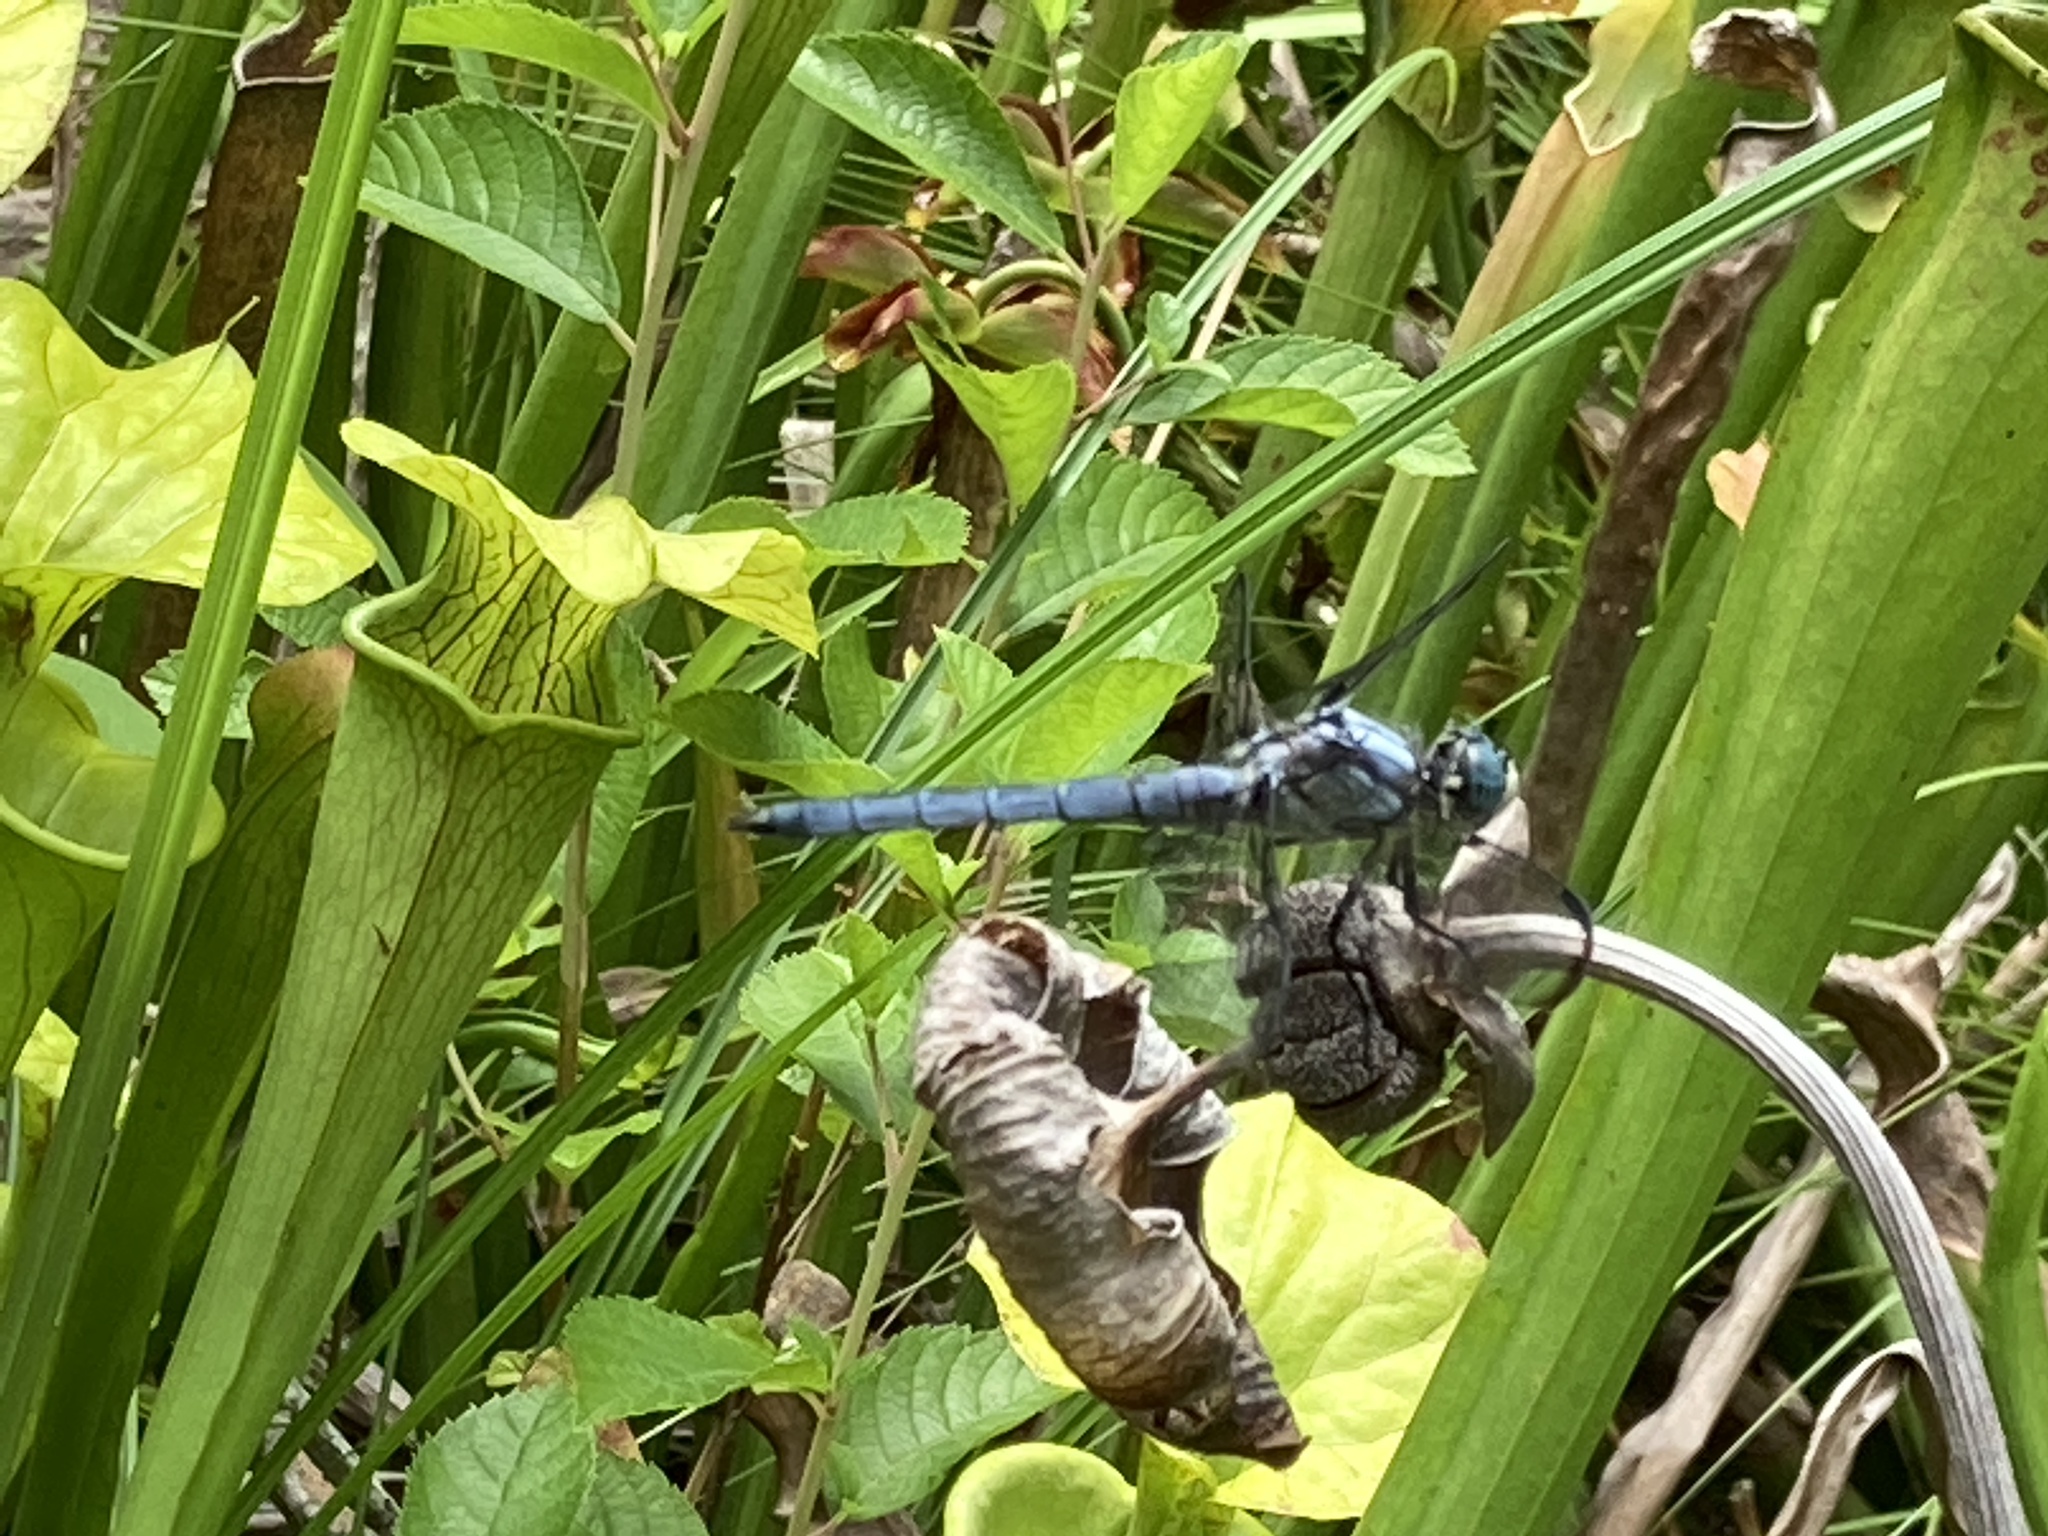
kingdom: Animalia
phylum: Arthropoda
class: Insecta
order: Odonata
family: Libellulidae
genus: Libellula
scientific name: Libellula vibrans
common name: Great blue skimmer
